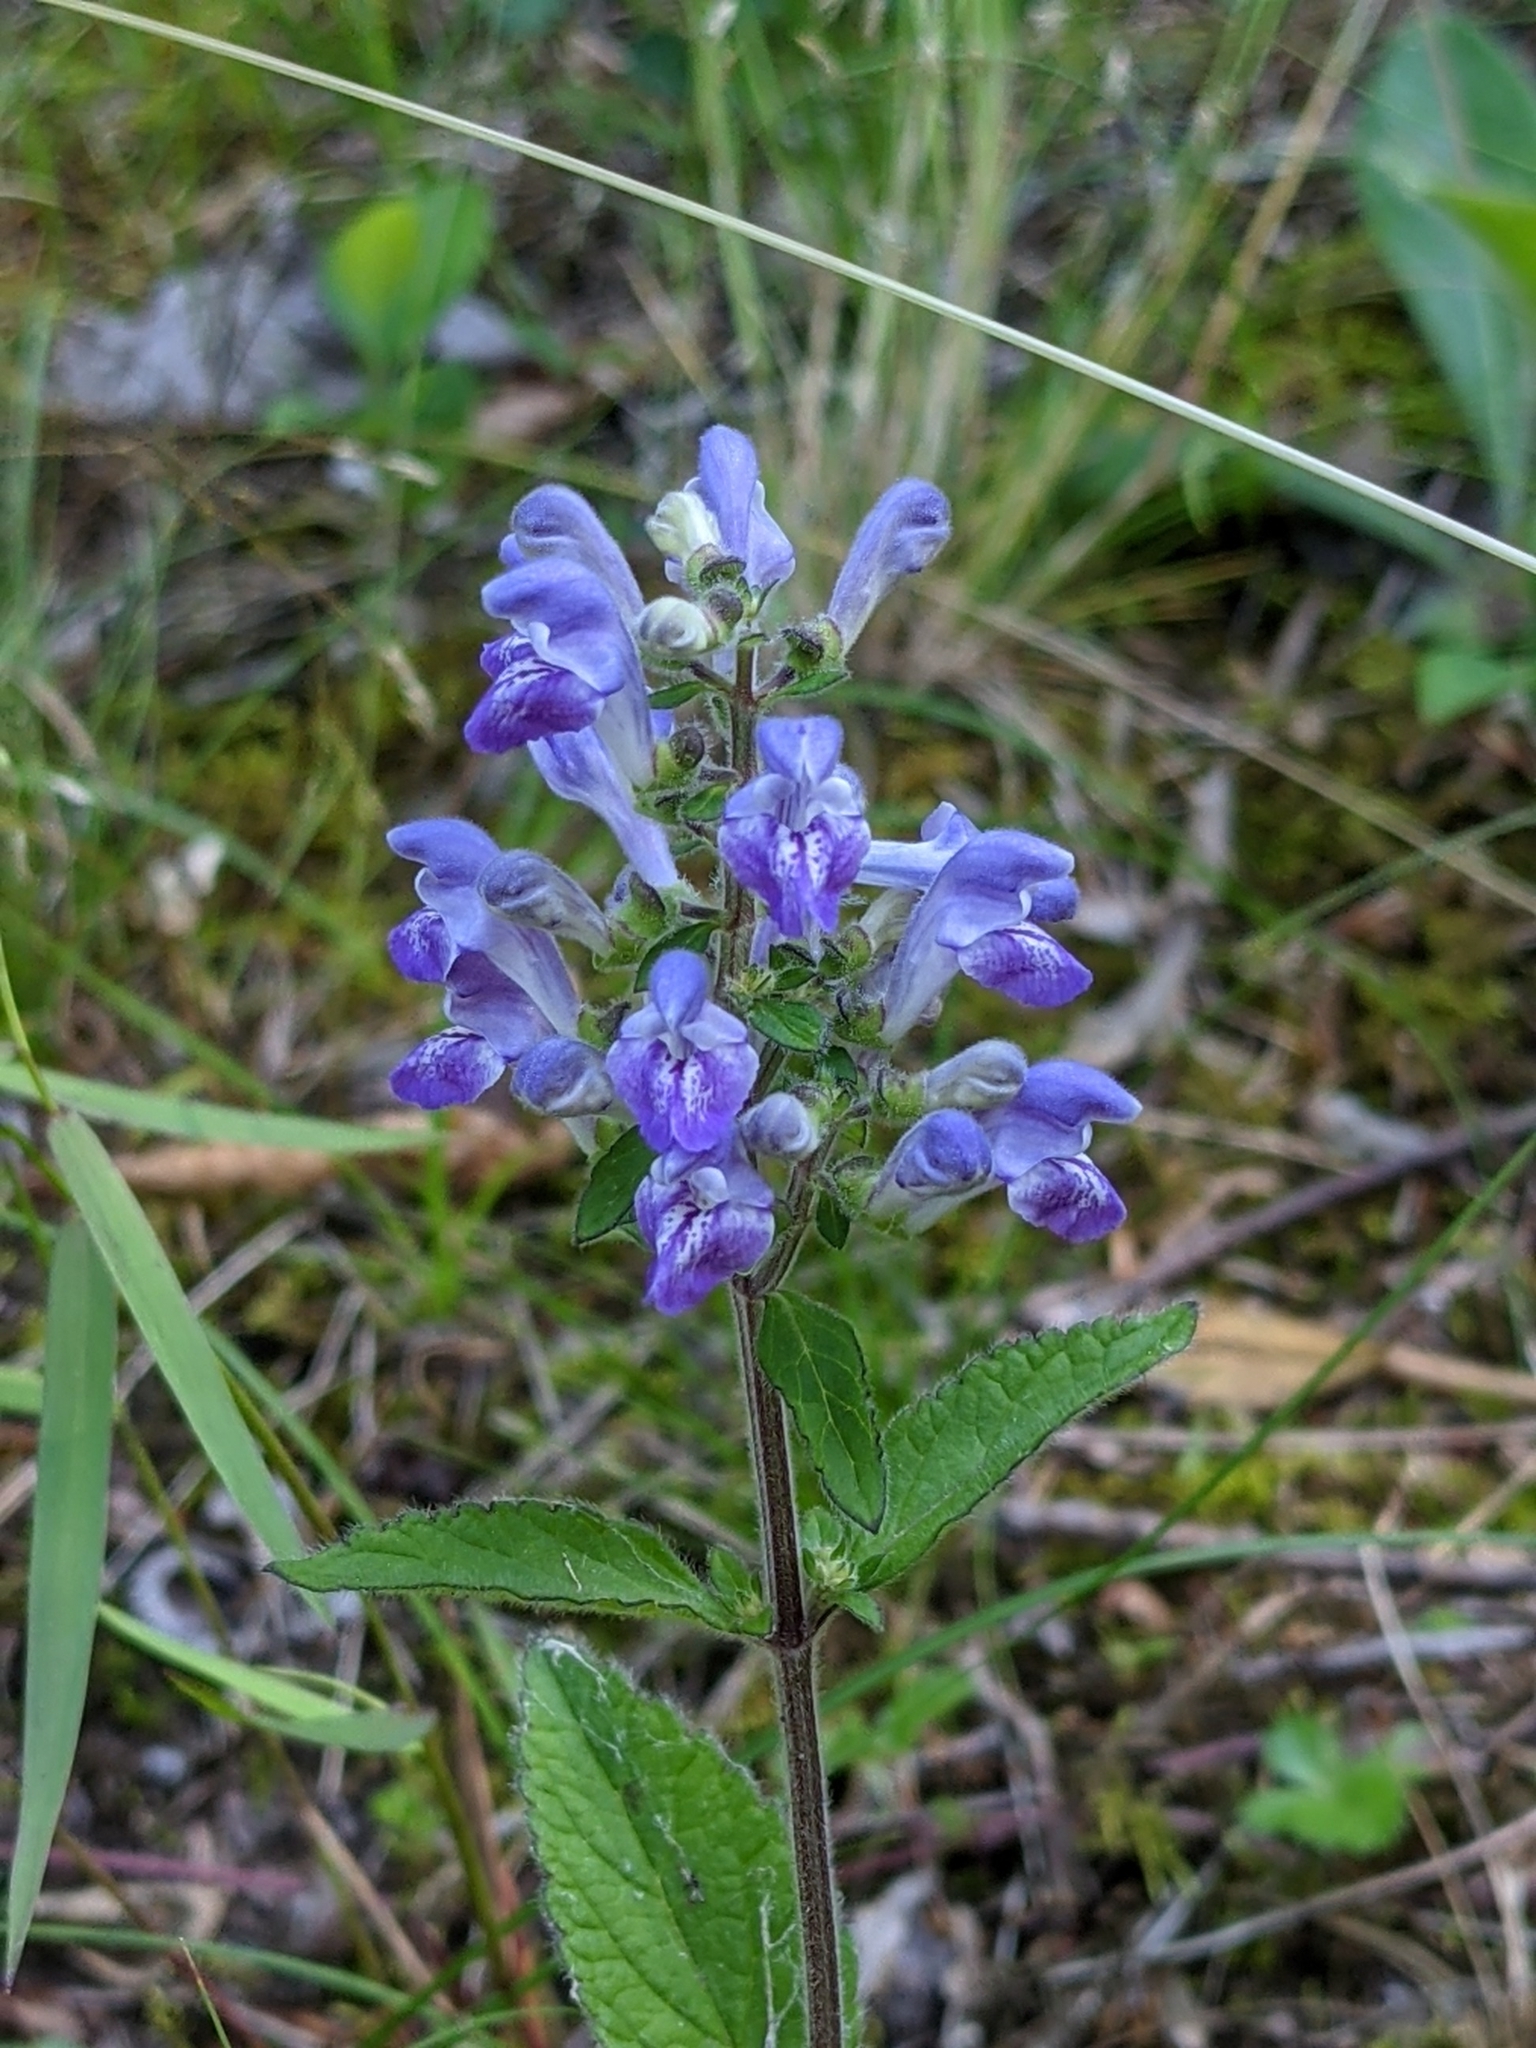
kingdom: Plantae
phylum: Tracheophyta
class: Magnoliopsida
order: Lamiales
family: Lamiaceae
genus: Scutellaria
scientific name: Scutellaria elliptica
